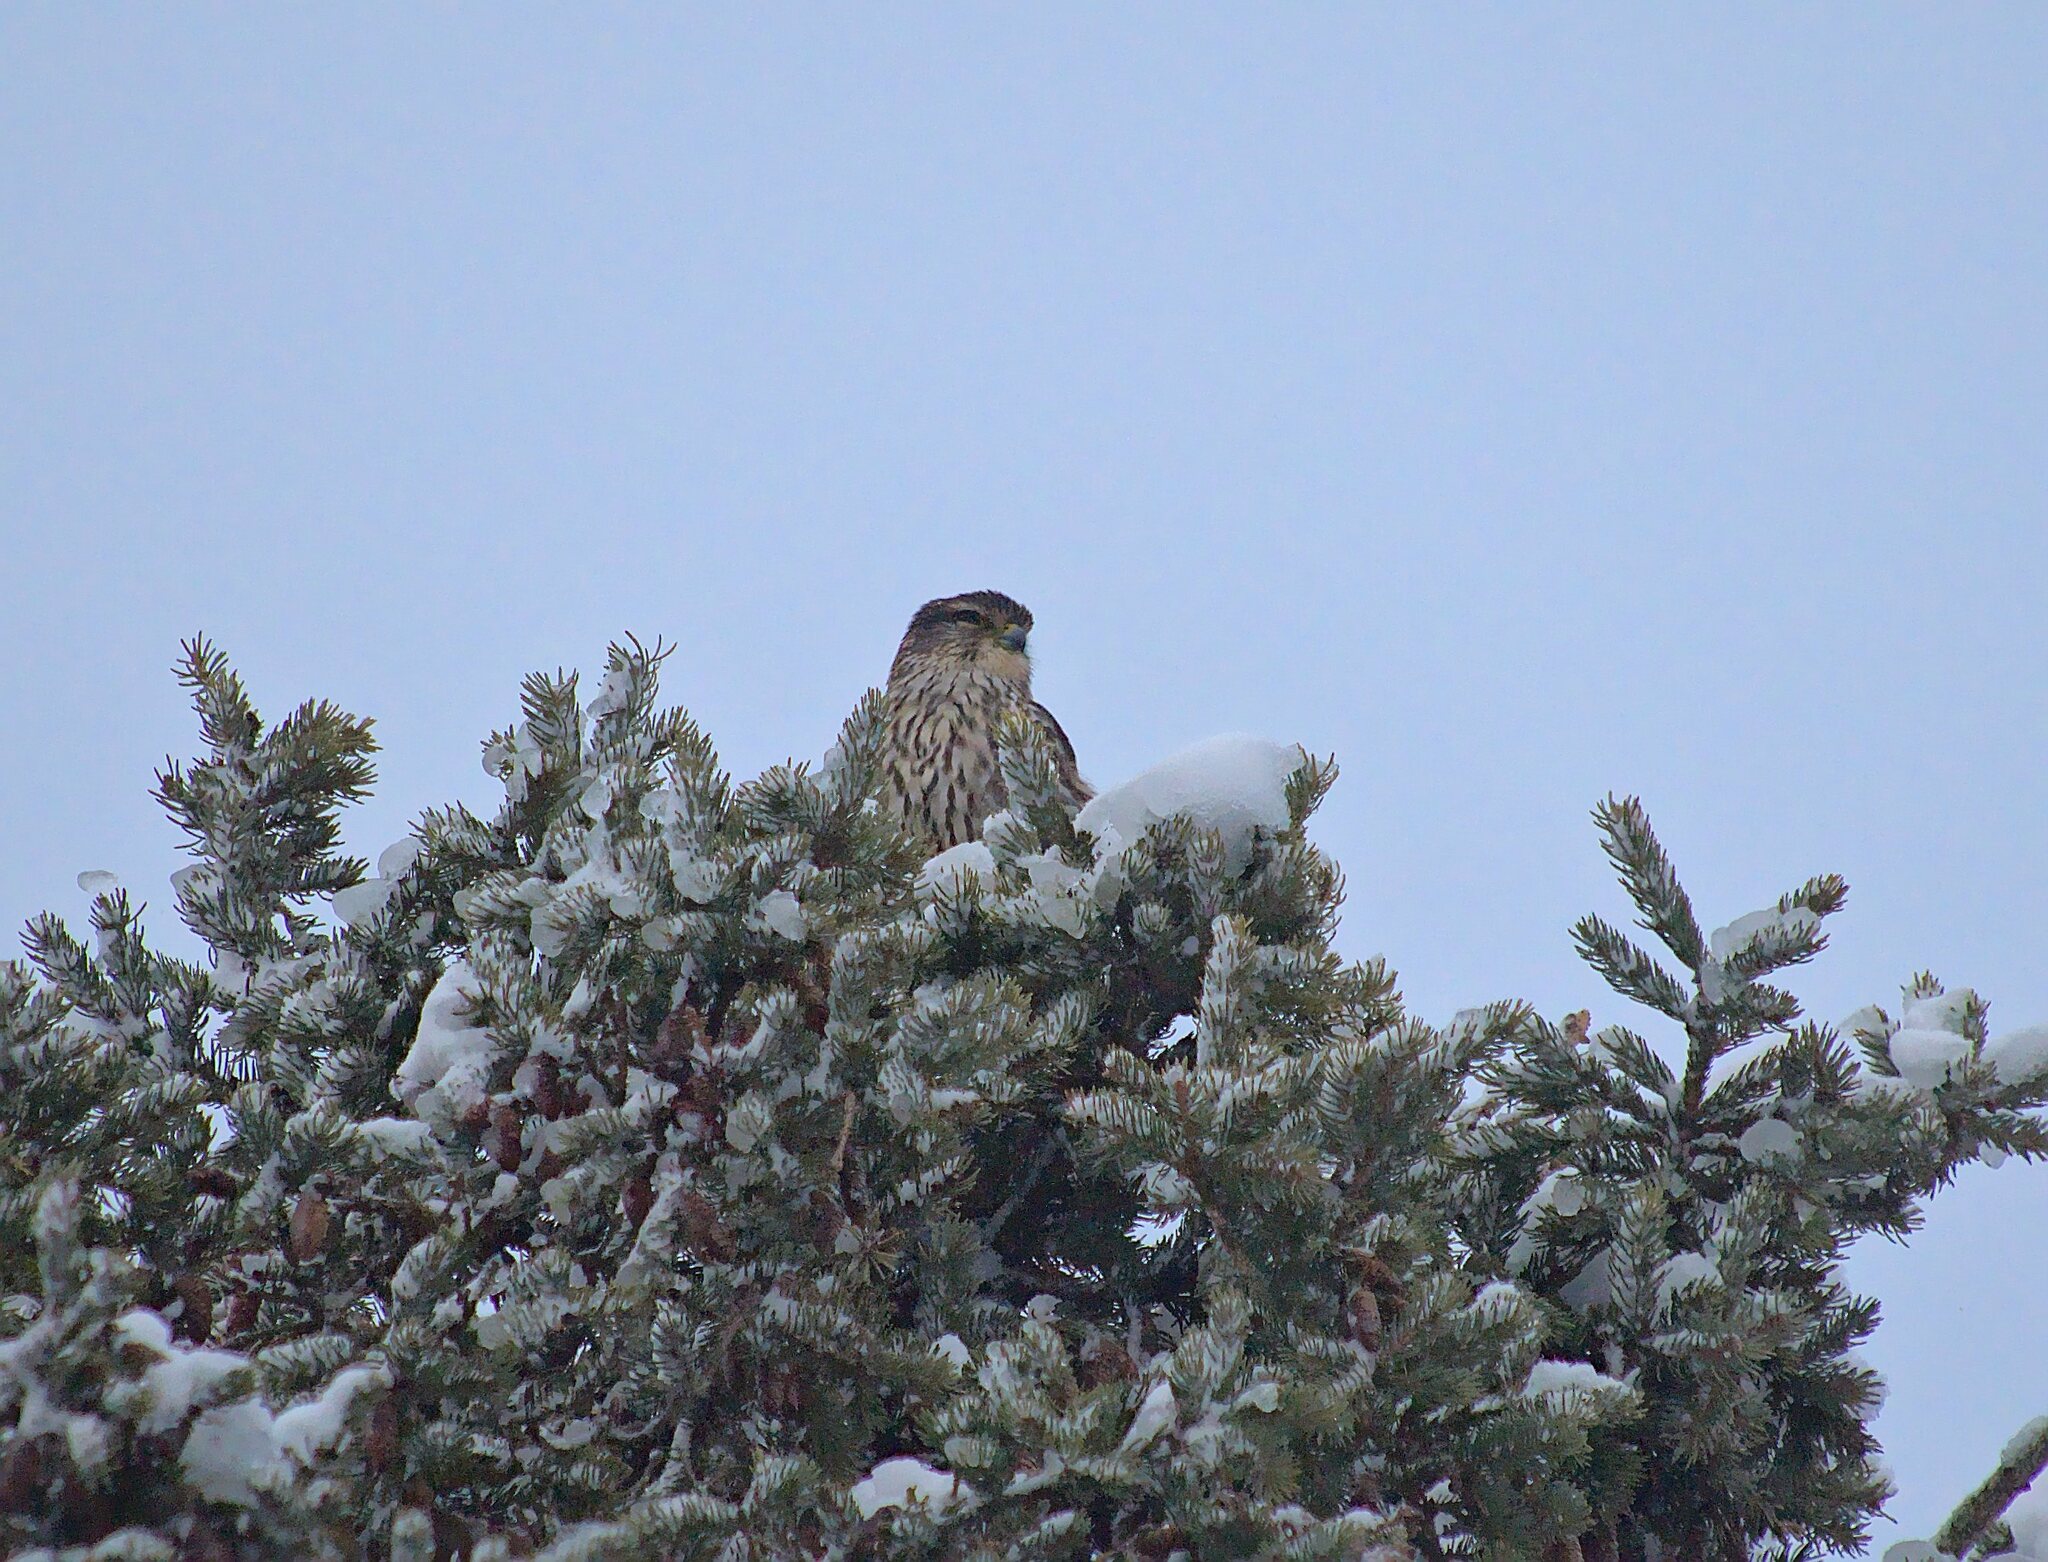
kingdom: Animalia
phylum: Chordata
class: Aves
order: Falconiformes
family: Falconidae
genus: Falco
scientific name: Falco columbarius
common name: Merlin
